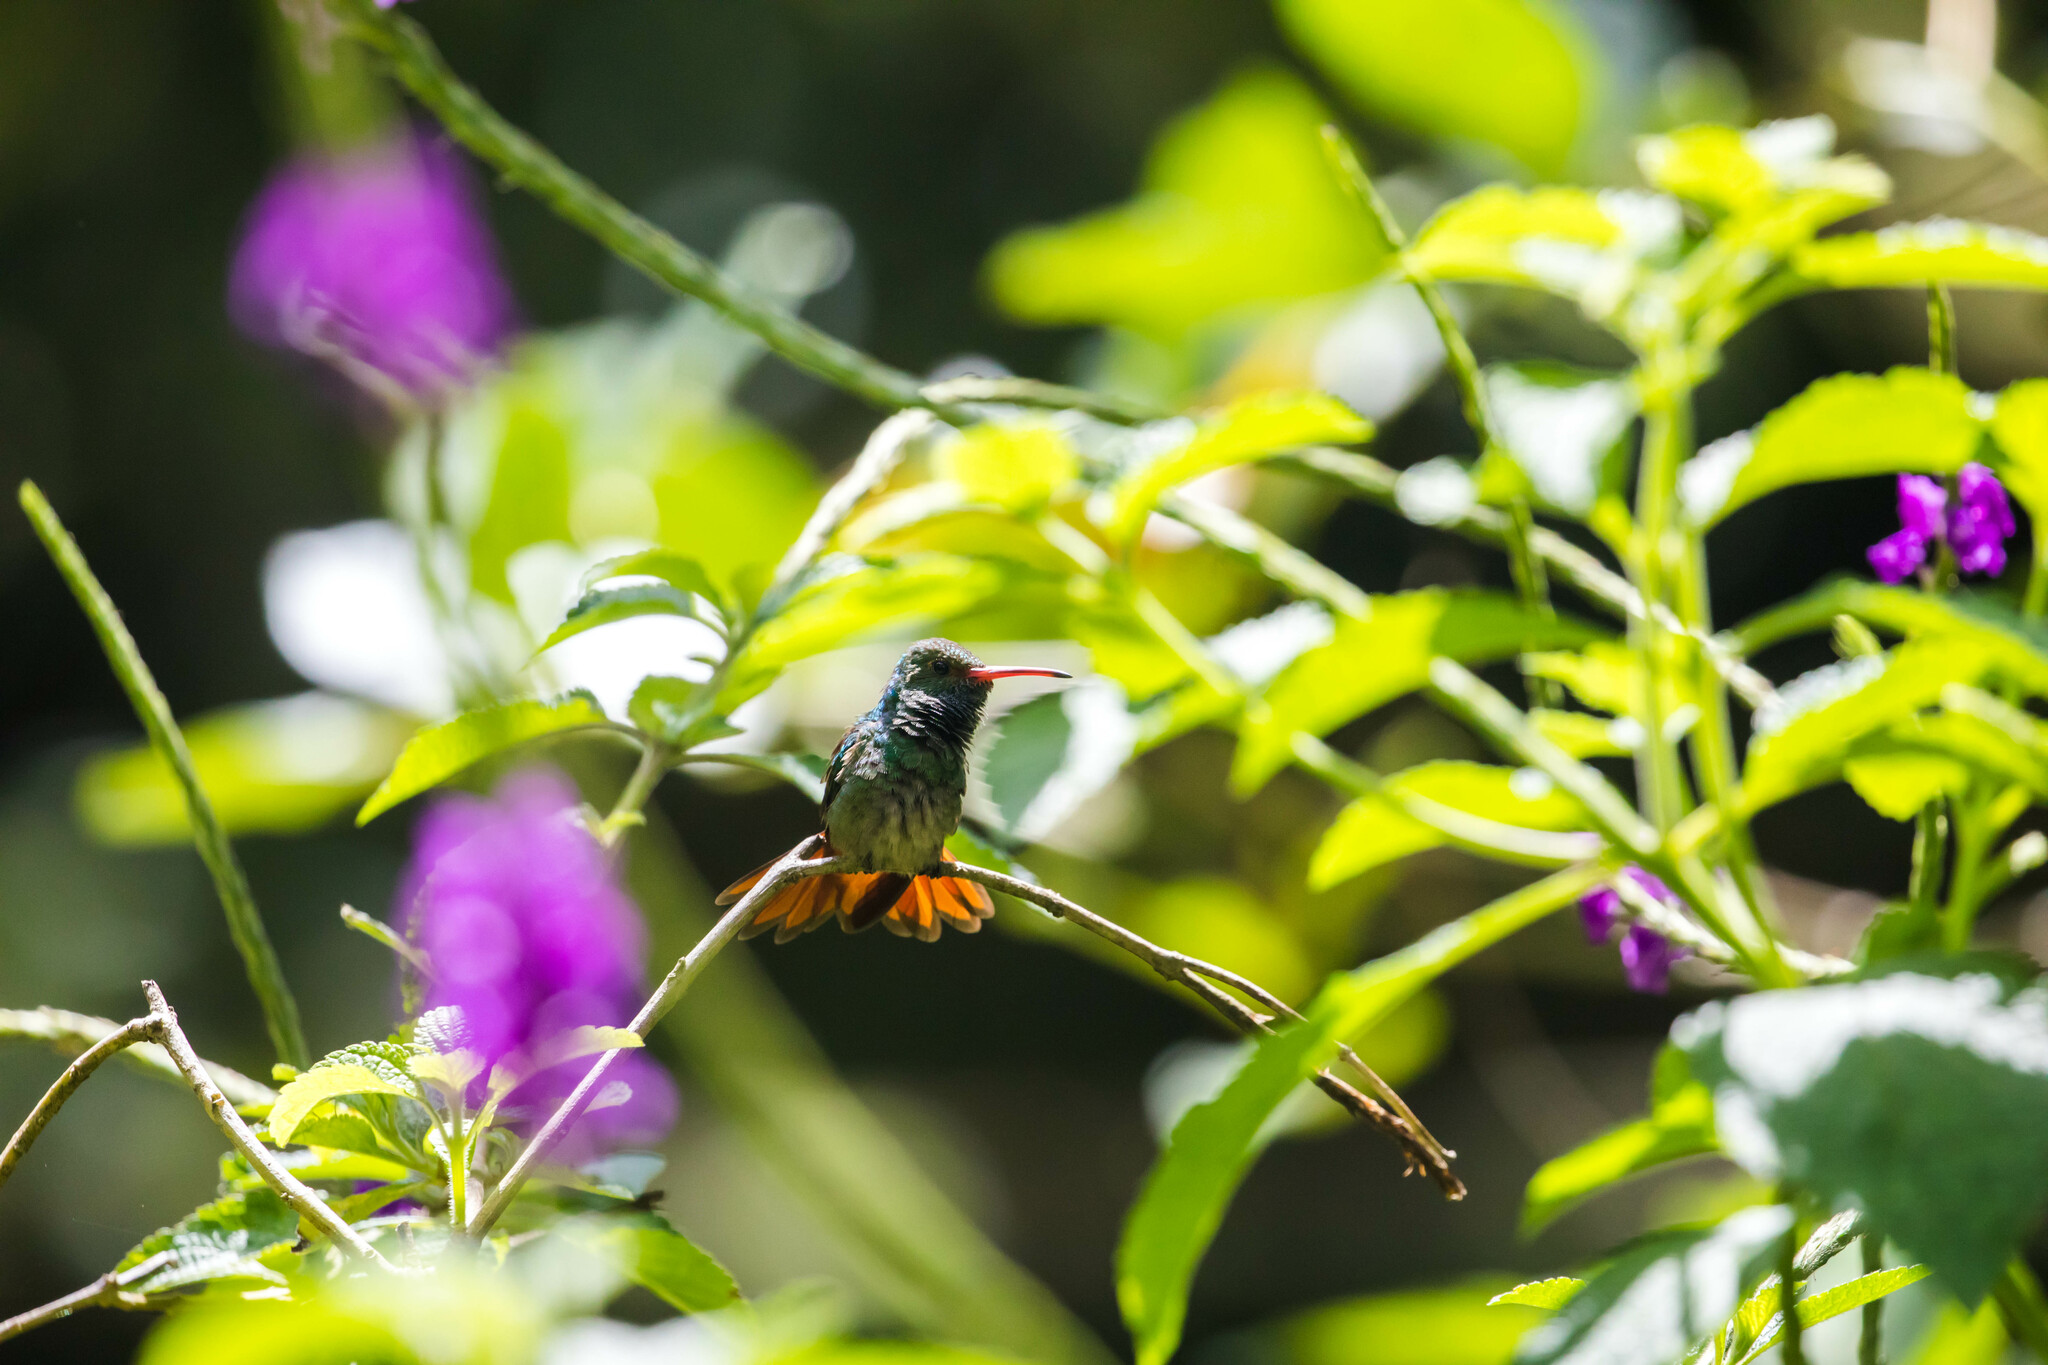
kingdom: Animalia
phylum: Chordata
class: Aves
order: Apodiformes
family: Trochilidae
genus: Amazilia
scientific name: Amazilia tzacatl
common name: Rufous-tailed hummingbird
